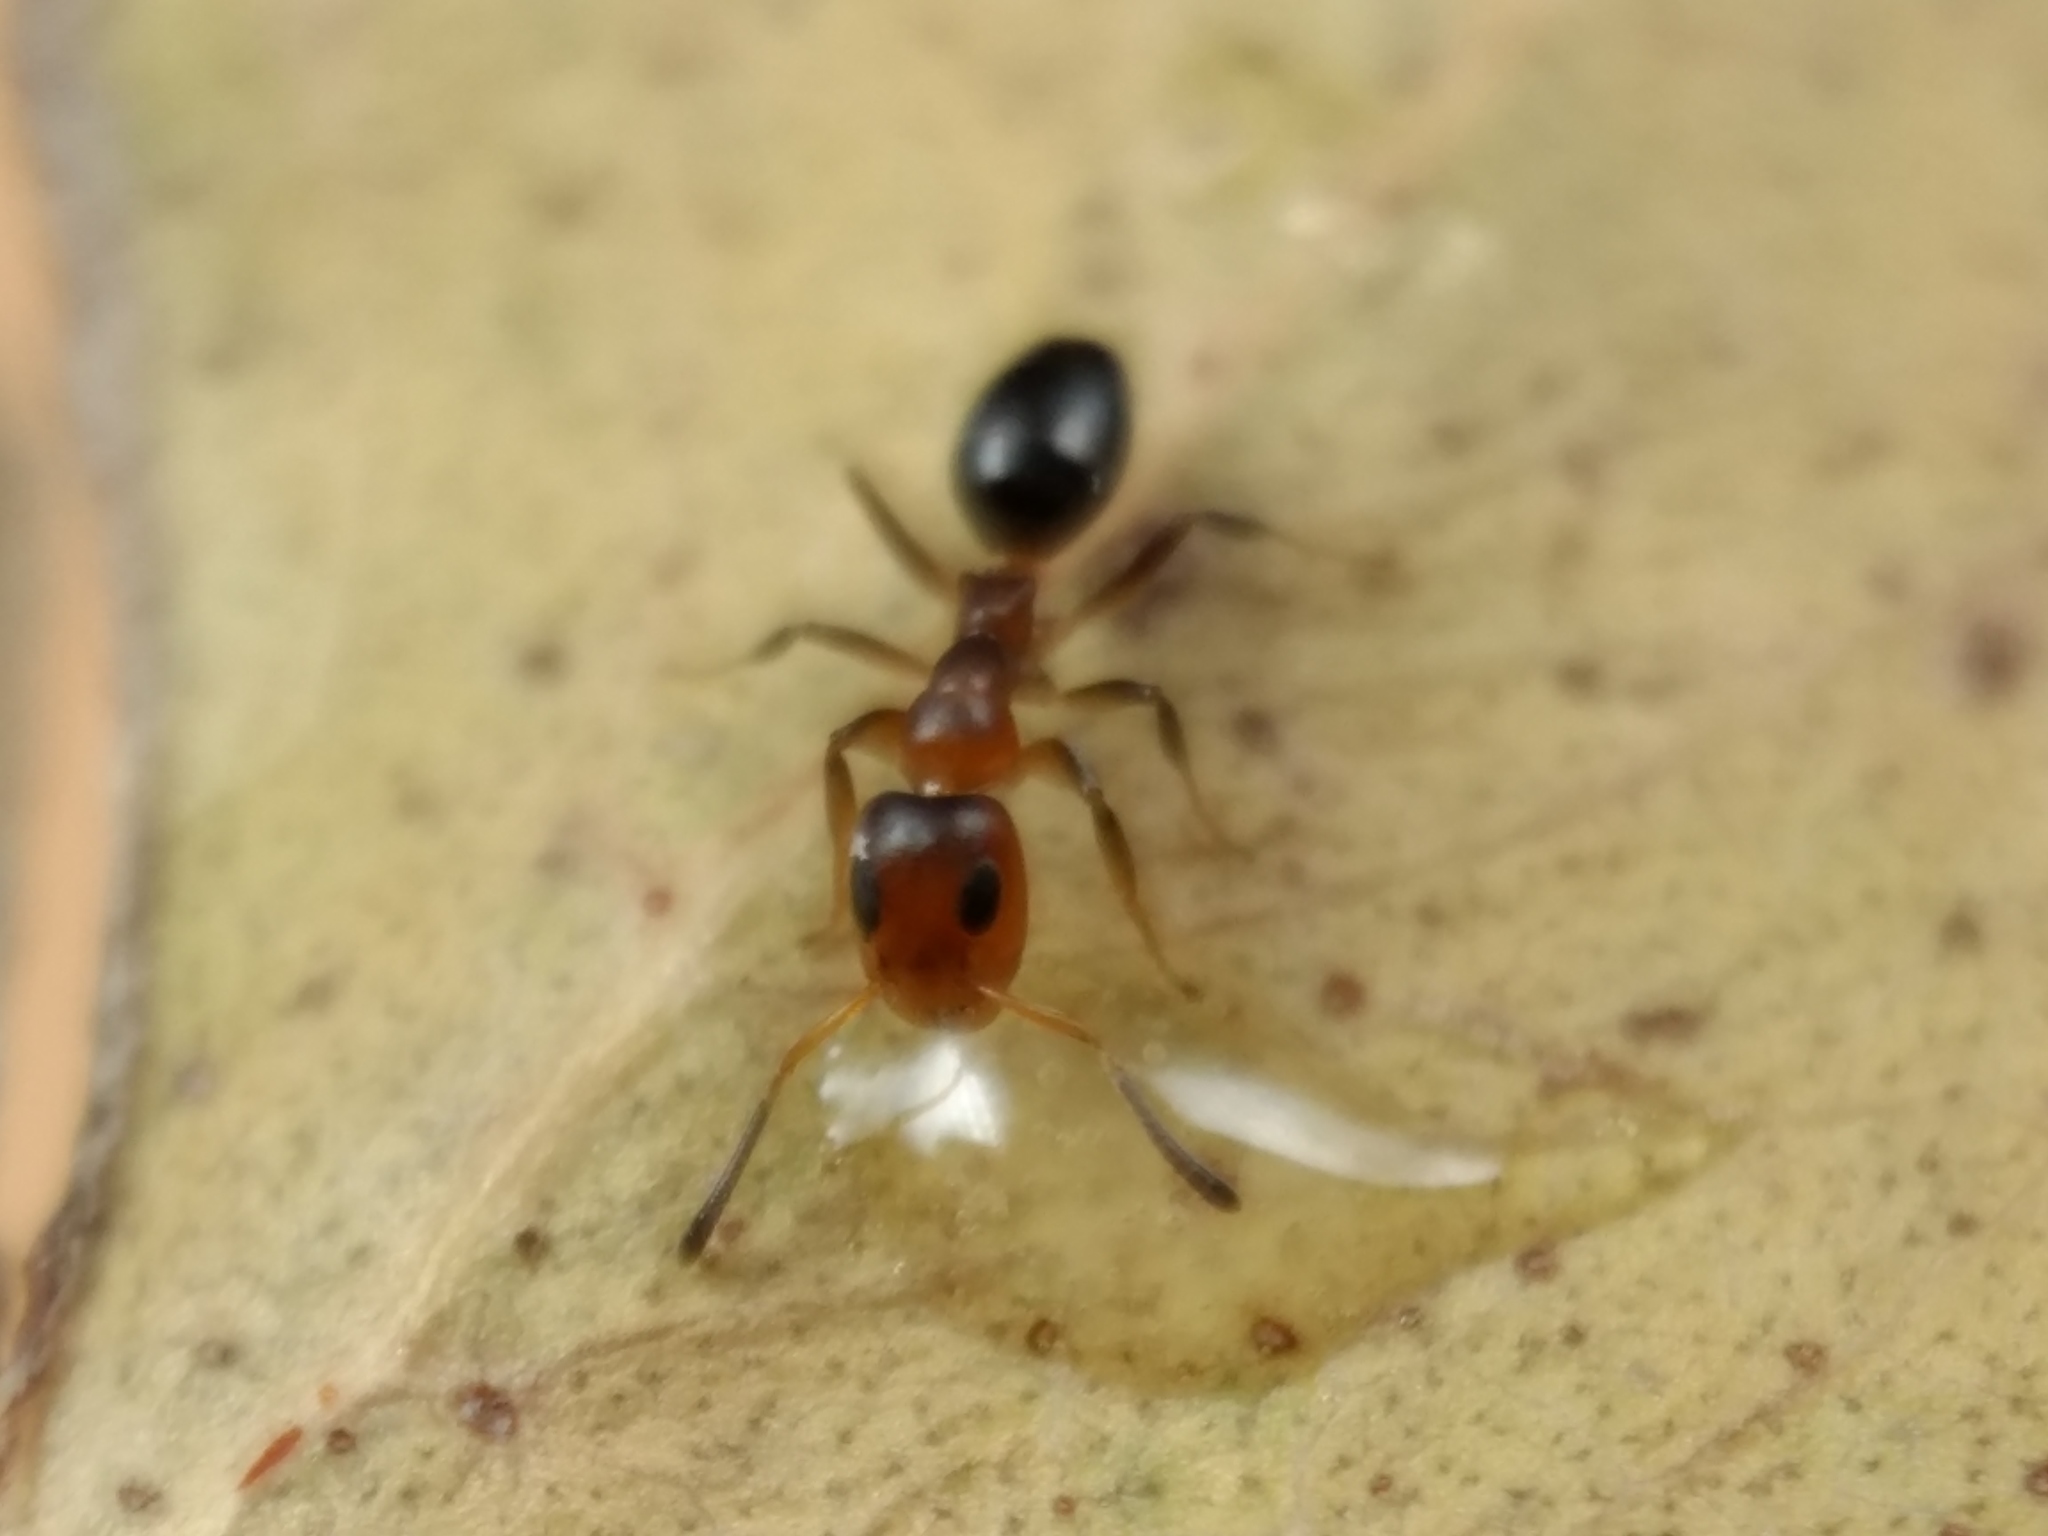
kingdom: Animalia
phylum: Arthropoda
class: Insecta
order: Hymenoptera
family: Formicidae
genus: Turneria
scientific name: Turneria bidentata
